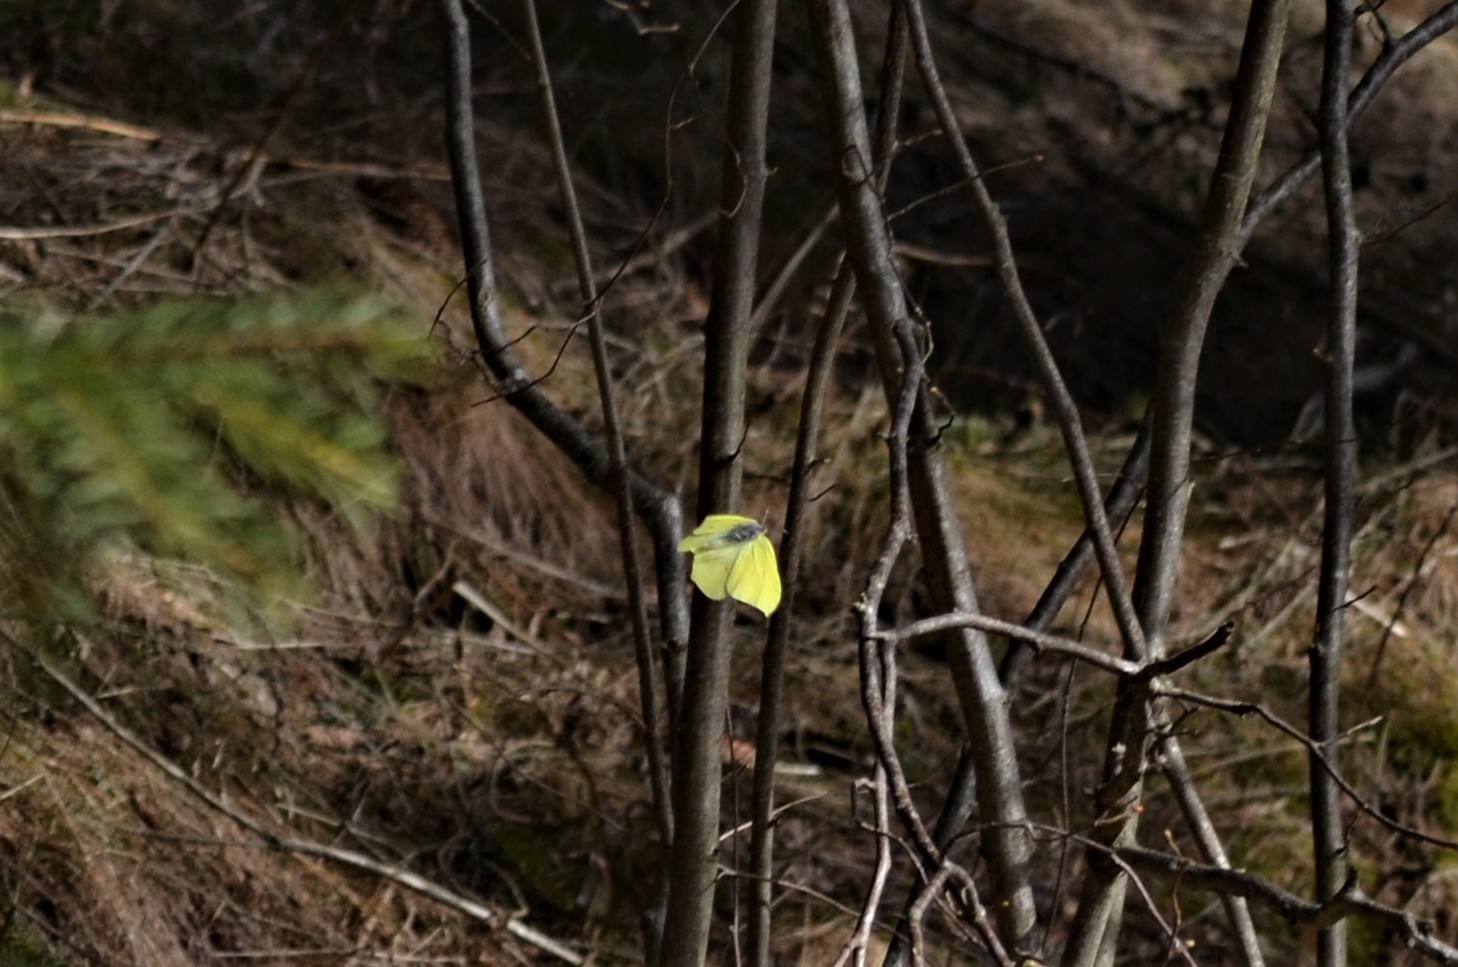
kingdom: Animalia
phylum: Arthropoda
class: Insecta
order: Lepidoptera
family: Pieridae
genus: Gonepteryx
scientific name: Gonepteryx rhamni
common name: Brimstone
